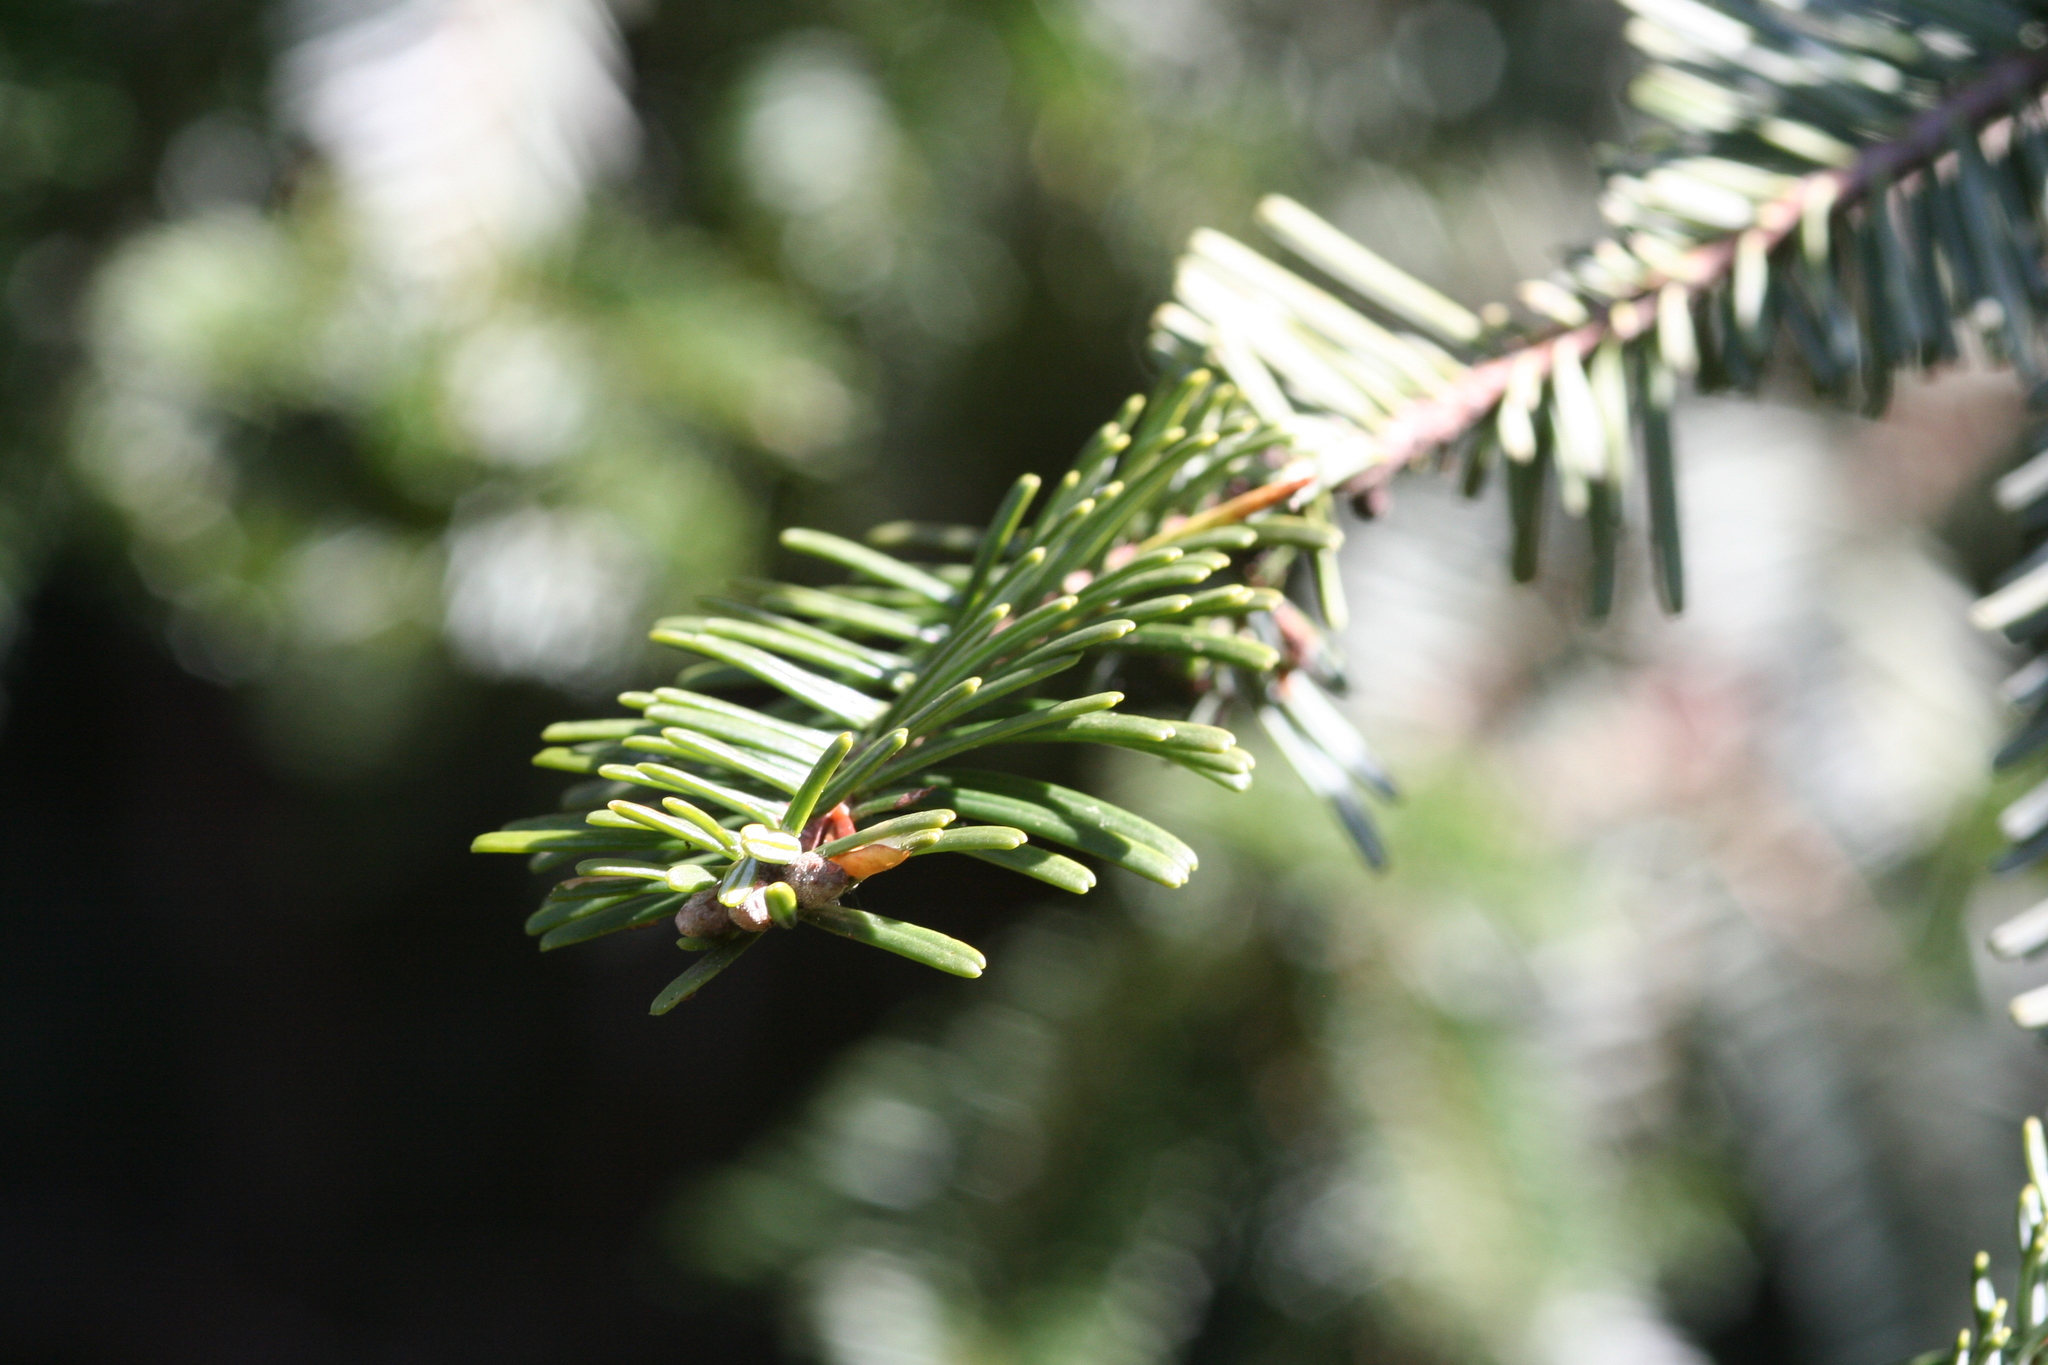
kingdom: Plantae
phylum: Tracheophyta
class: Pinopsida
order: Pinales
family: Pinaceae
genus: Abies
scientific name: Abies grandis
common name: Giant fir
